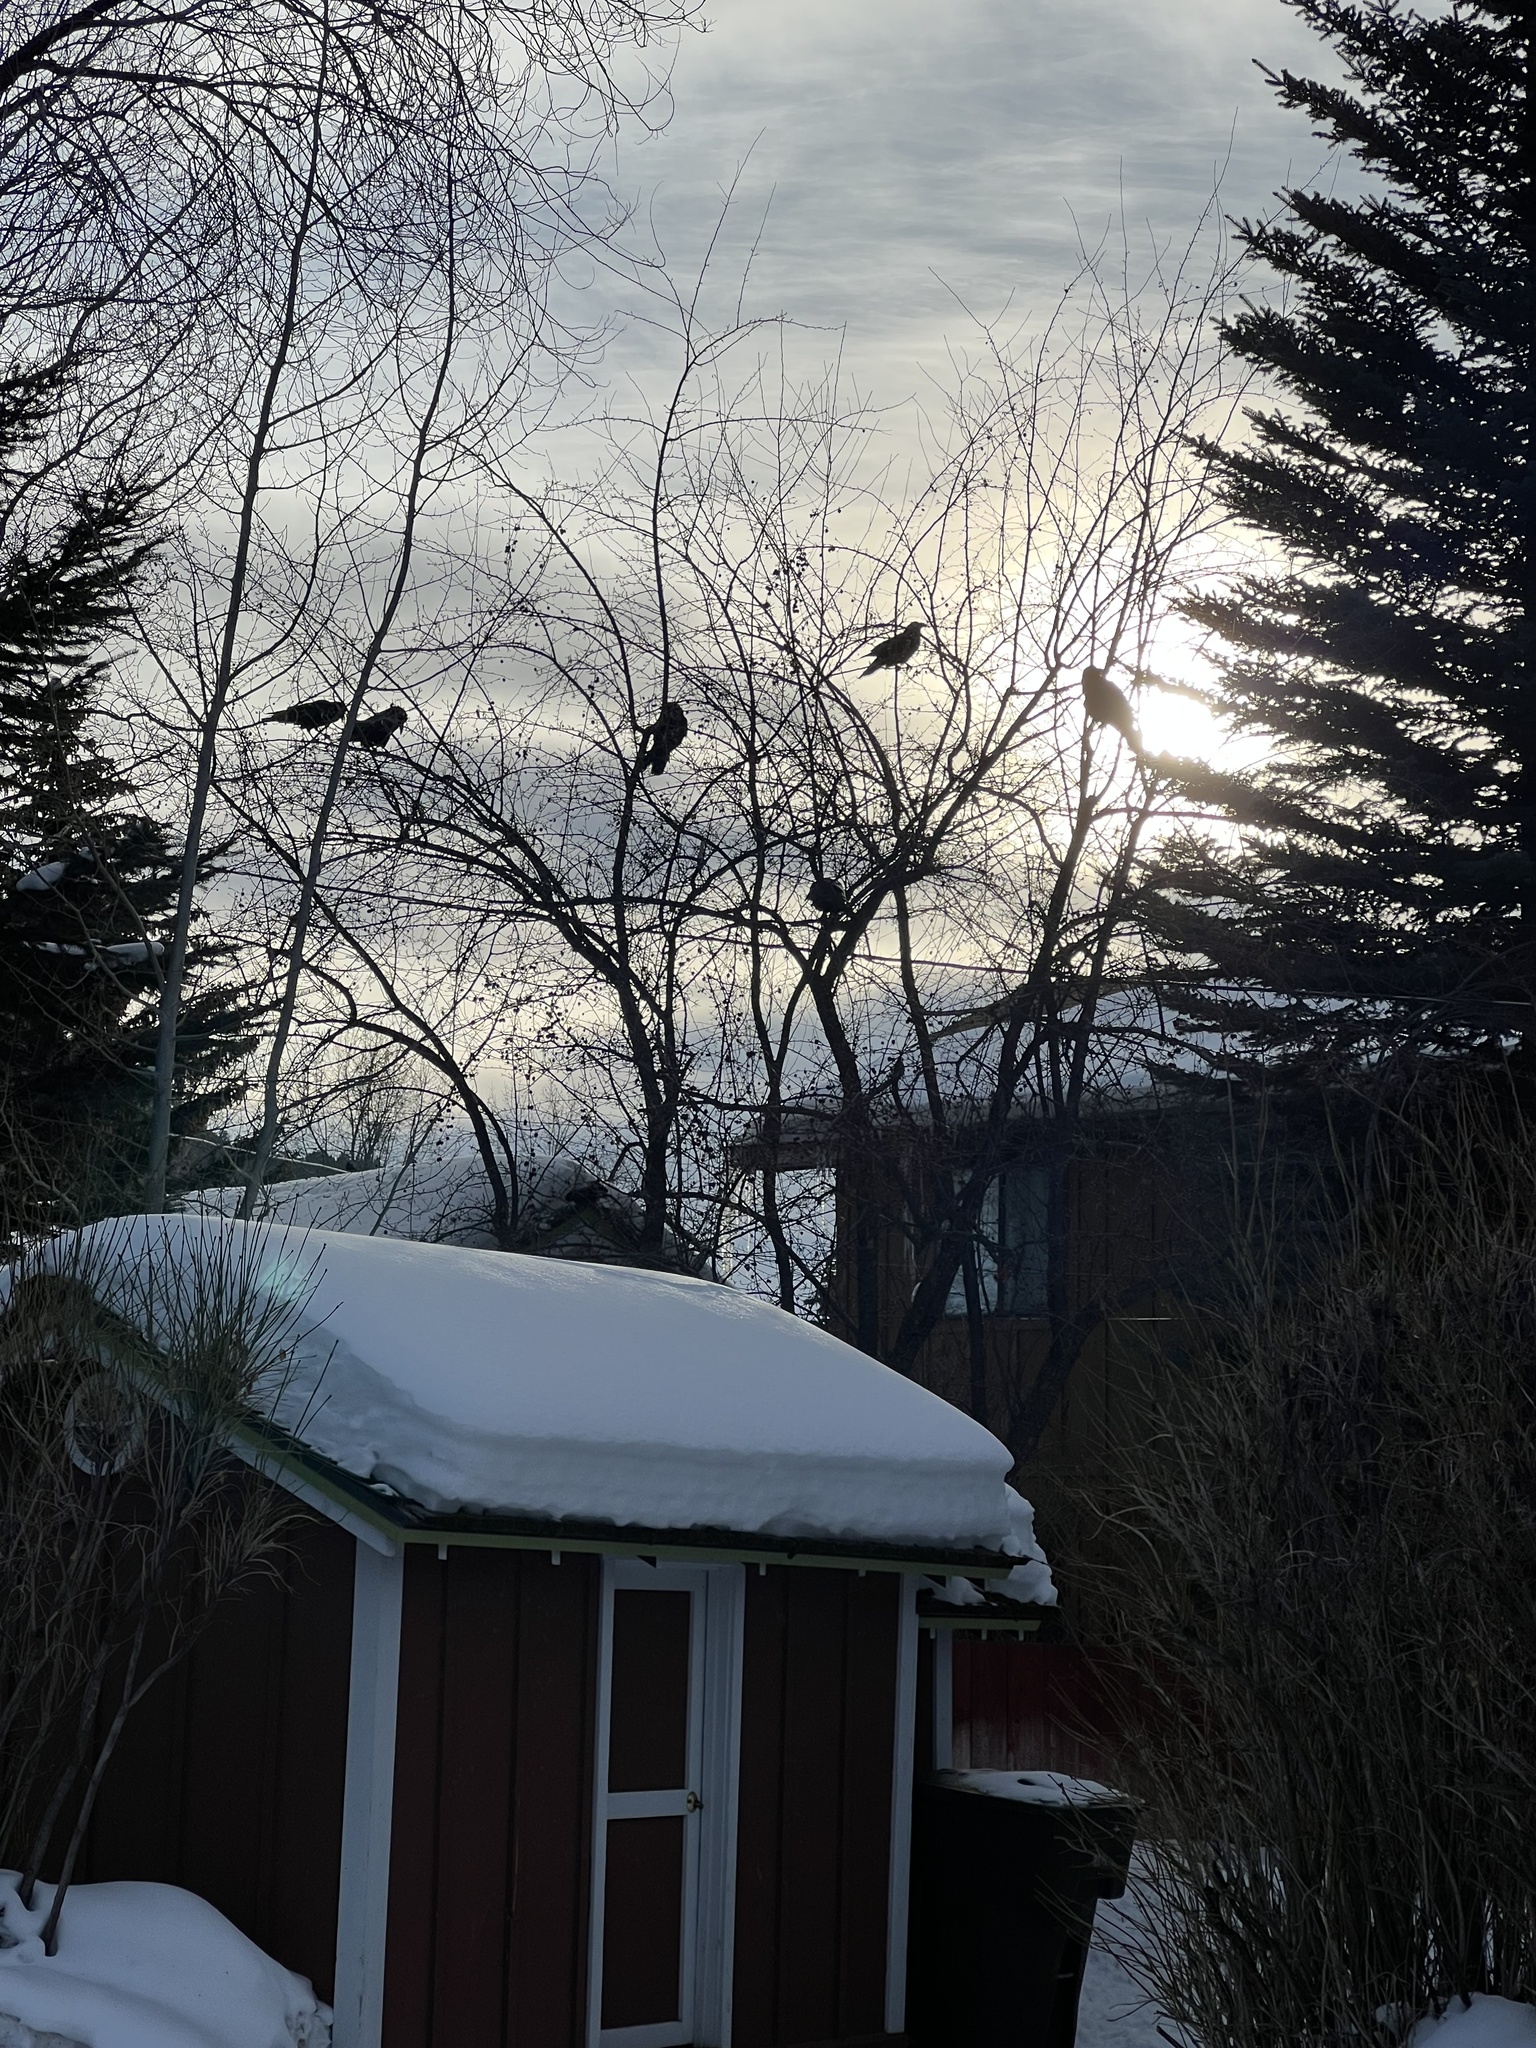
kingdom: Animalia
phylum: Chordata
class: Aves
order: Passeriformes
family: Corvidae
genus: Corvus
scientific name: Corvus corax
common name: Common raven
